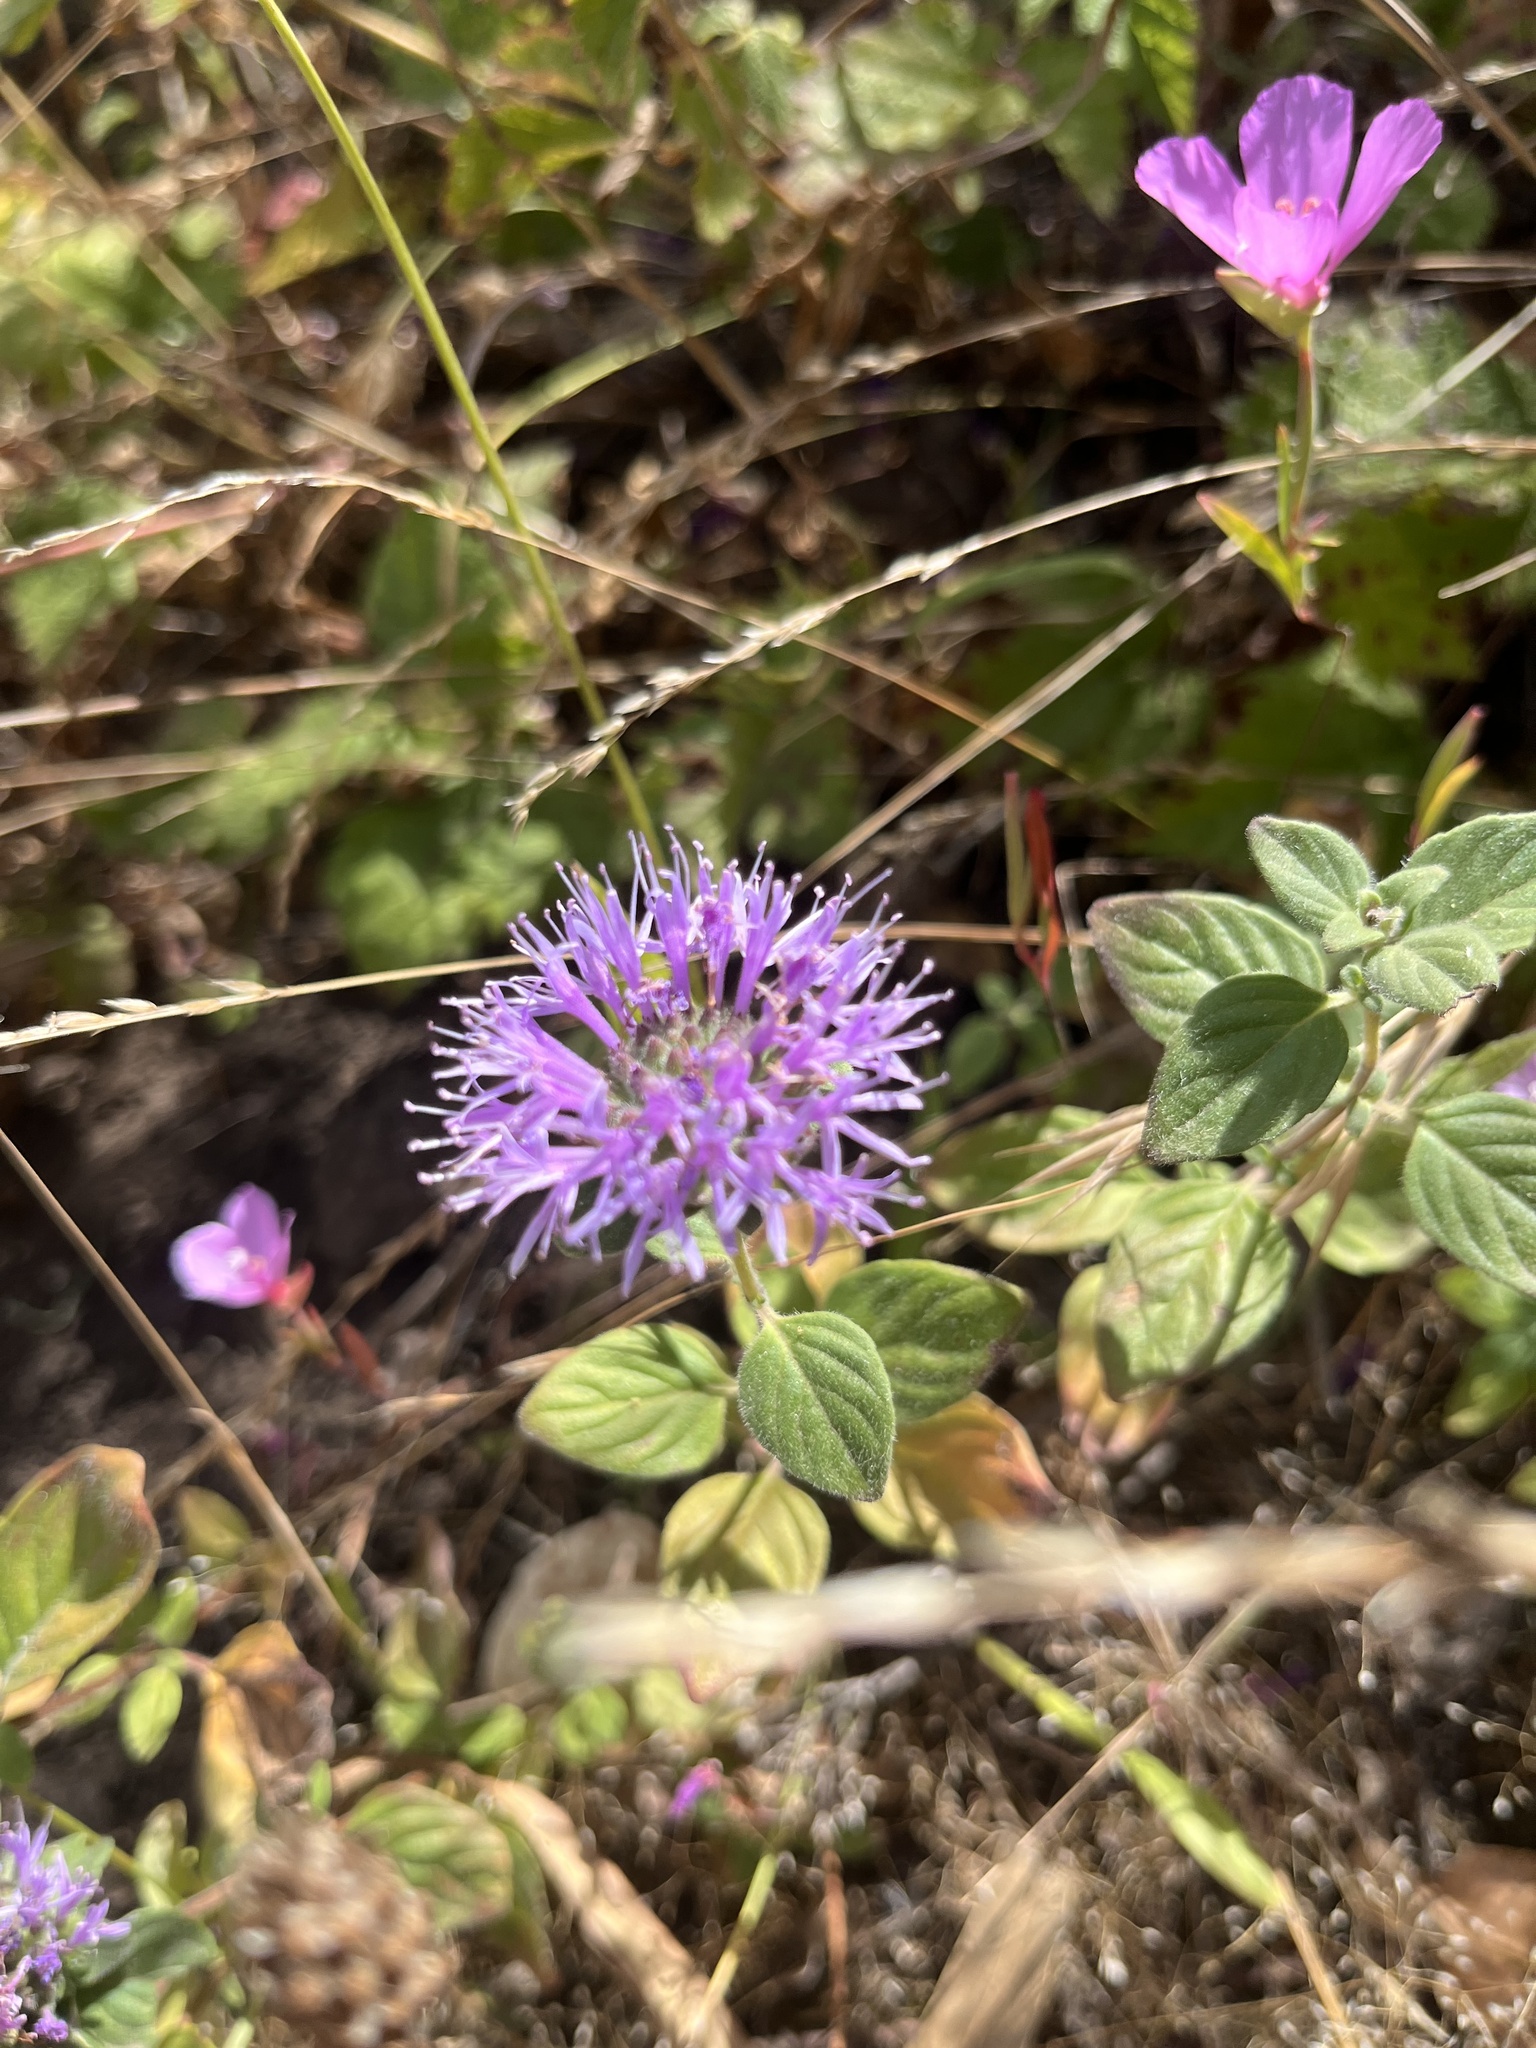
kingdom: Plantae
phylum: Tracheophyta
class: Magnoliopsida
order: Lamiales
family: Lamiaceae
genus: Monardella
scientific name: Monardella odoratissima
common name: Pacific monardella
